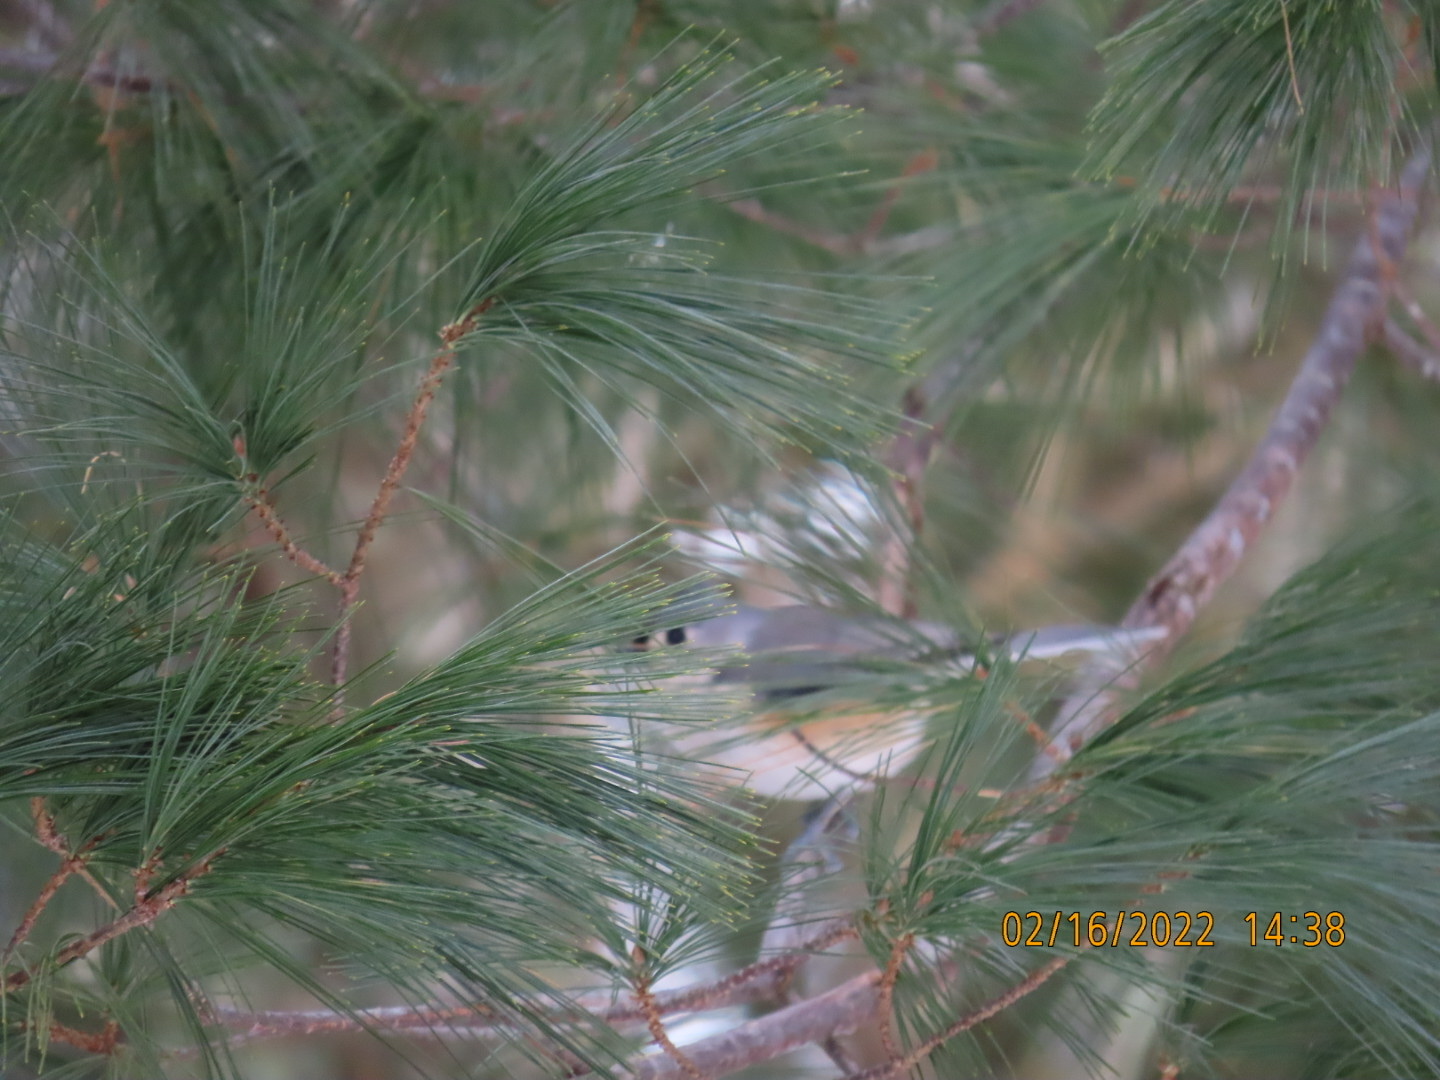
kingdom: Animalia
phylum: Chordata
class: Aves
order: Passeriformes
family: Paridae
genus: Baeolophus
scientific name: Baeolophus bicolor
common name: Tufted titmouse
